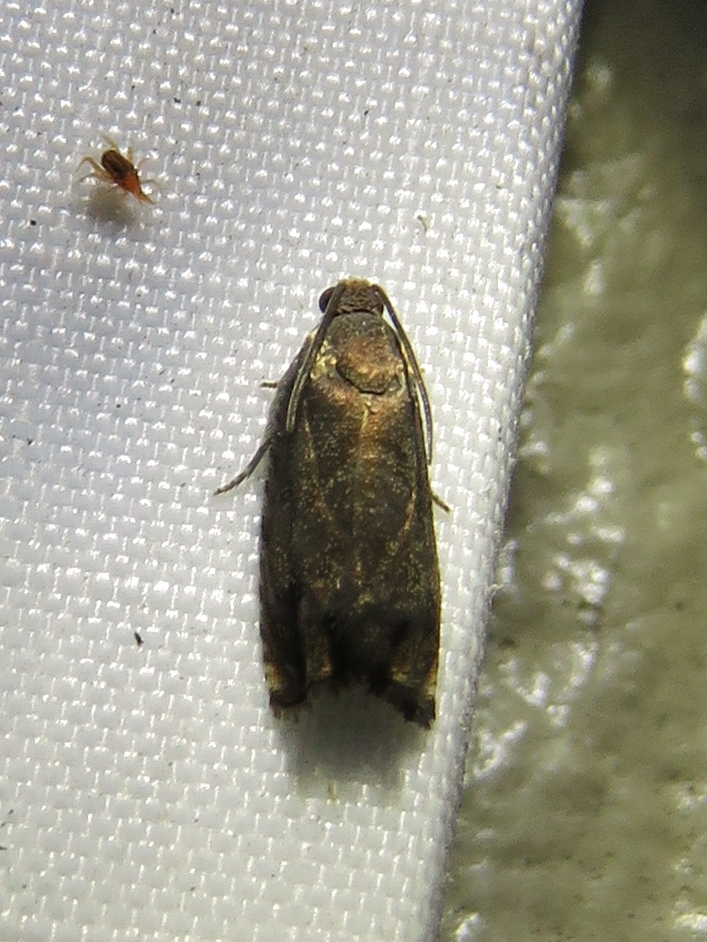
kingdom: Animalia
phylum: Arthropoda
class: Insecta
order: Lepidoptera
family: Tortricidae
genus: Cydia
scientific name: Cydia caryana
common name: Hickory shuckworm moth
